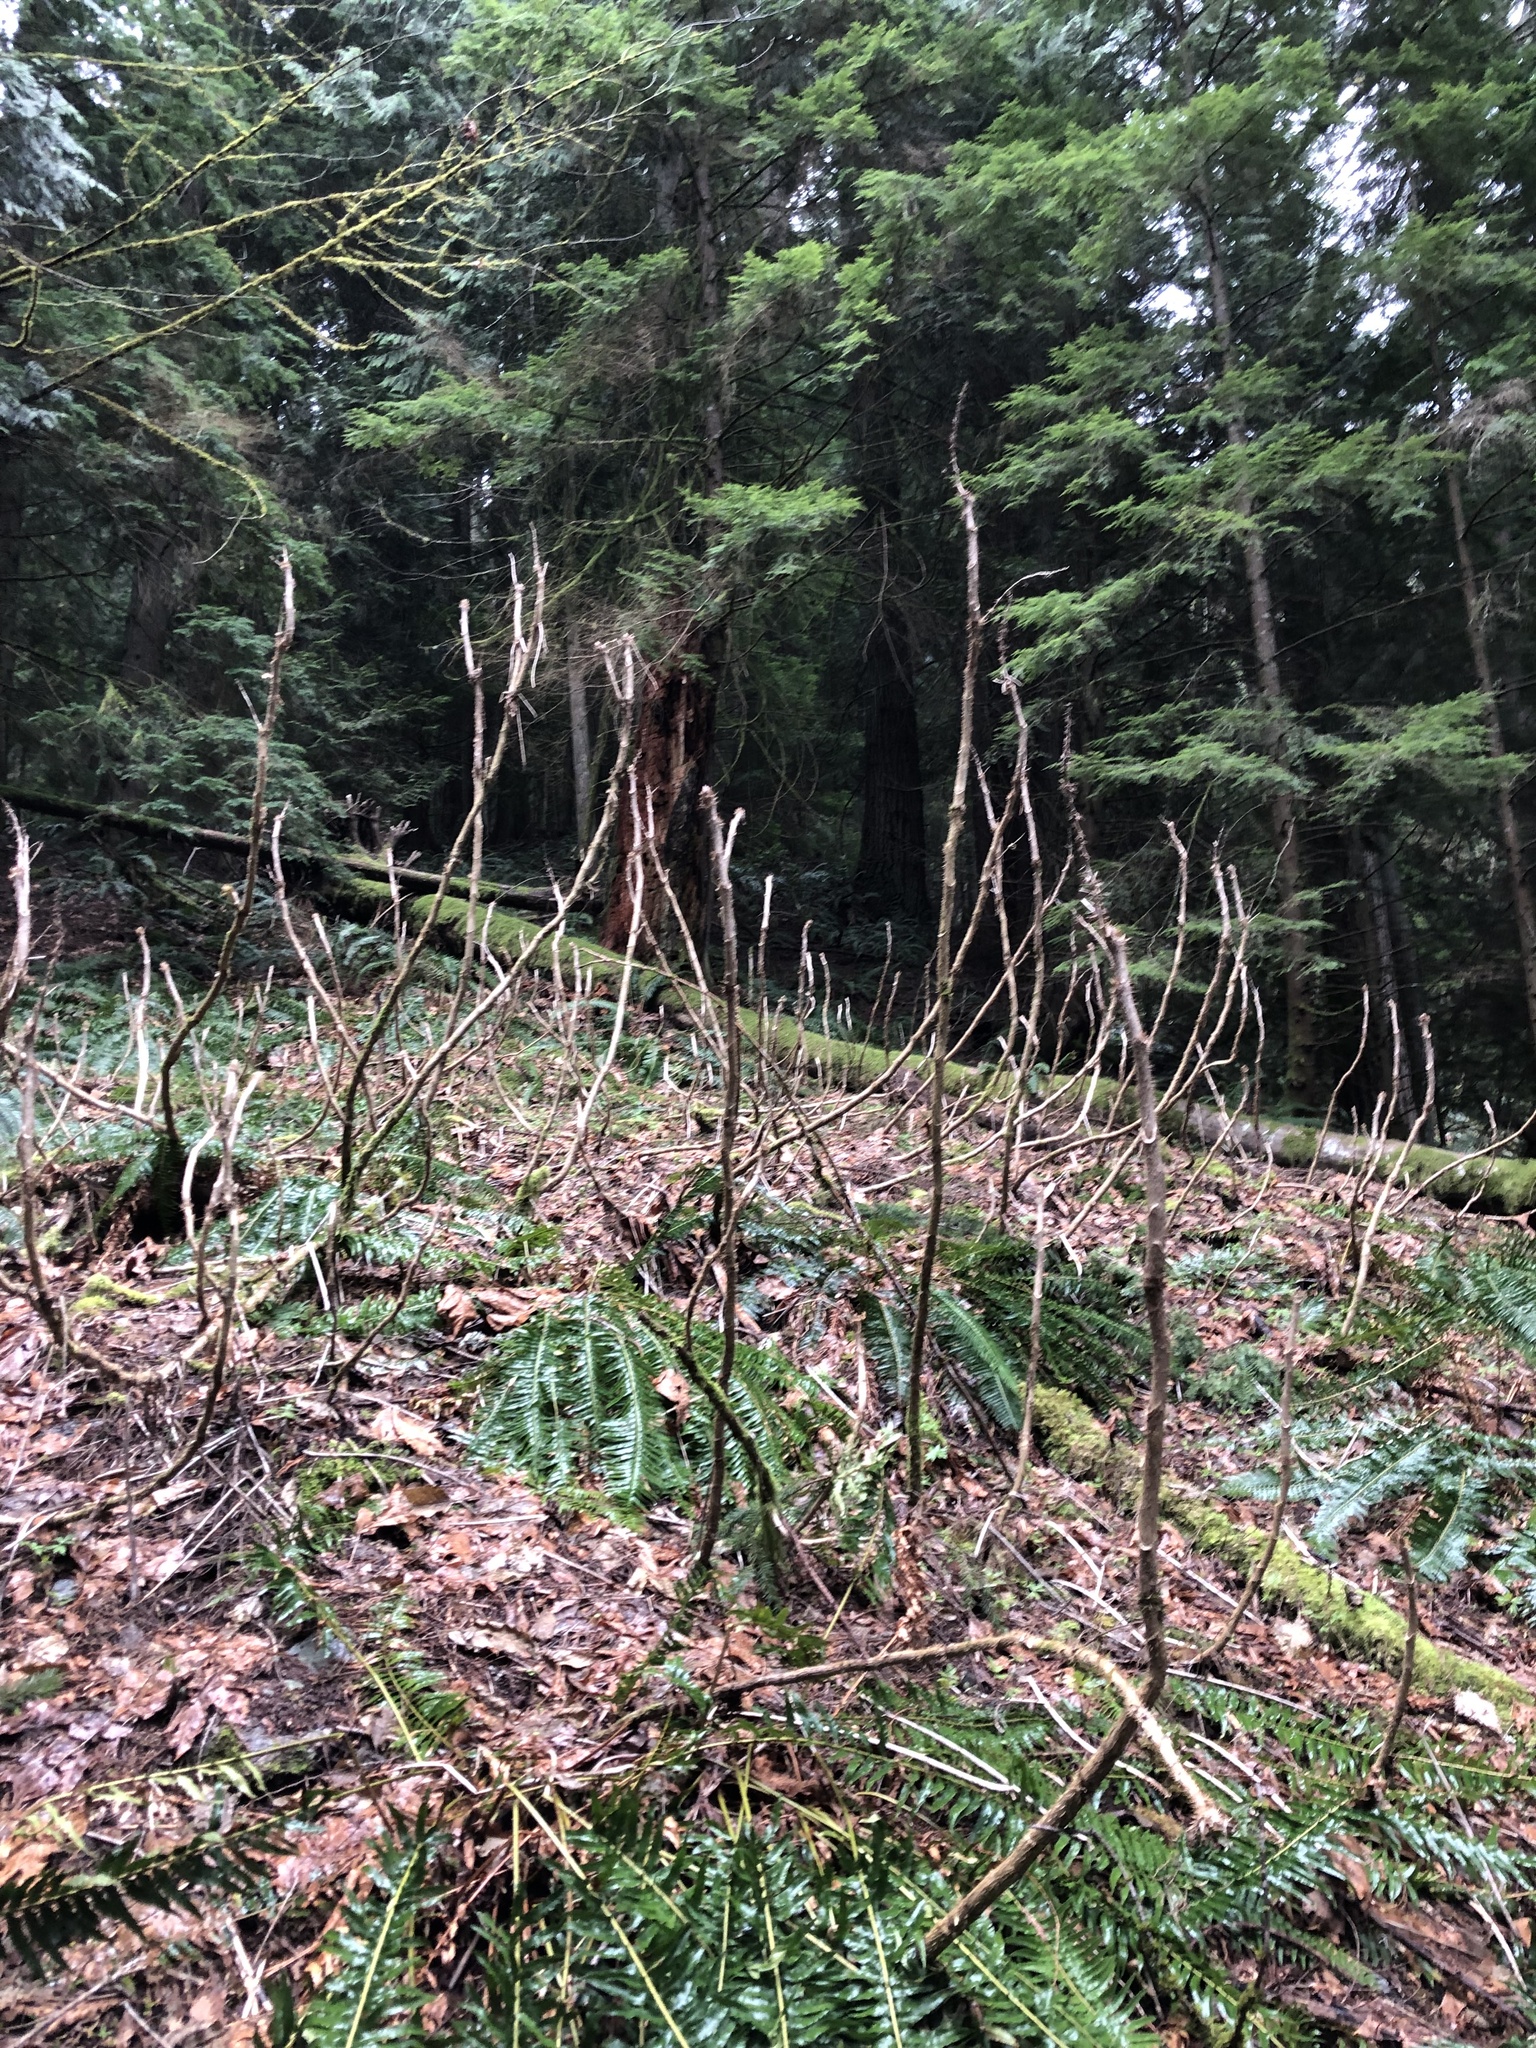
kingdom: Plantae
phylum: Tracheophyta
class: Magnoliopsida
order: Apiales
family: Araliaceae
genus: Oplopanax
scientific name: Oplopanax horridus
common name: Devil's walking-stick
